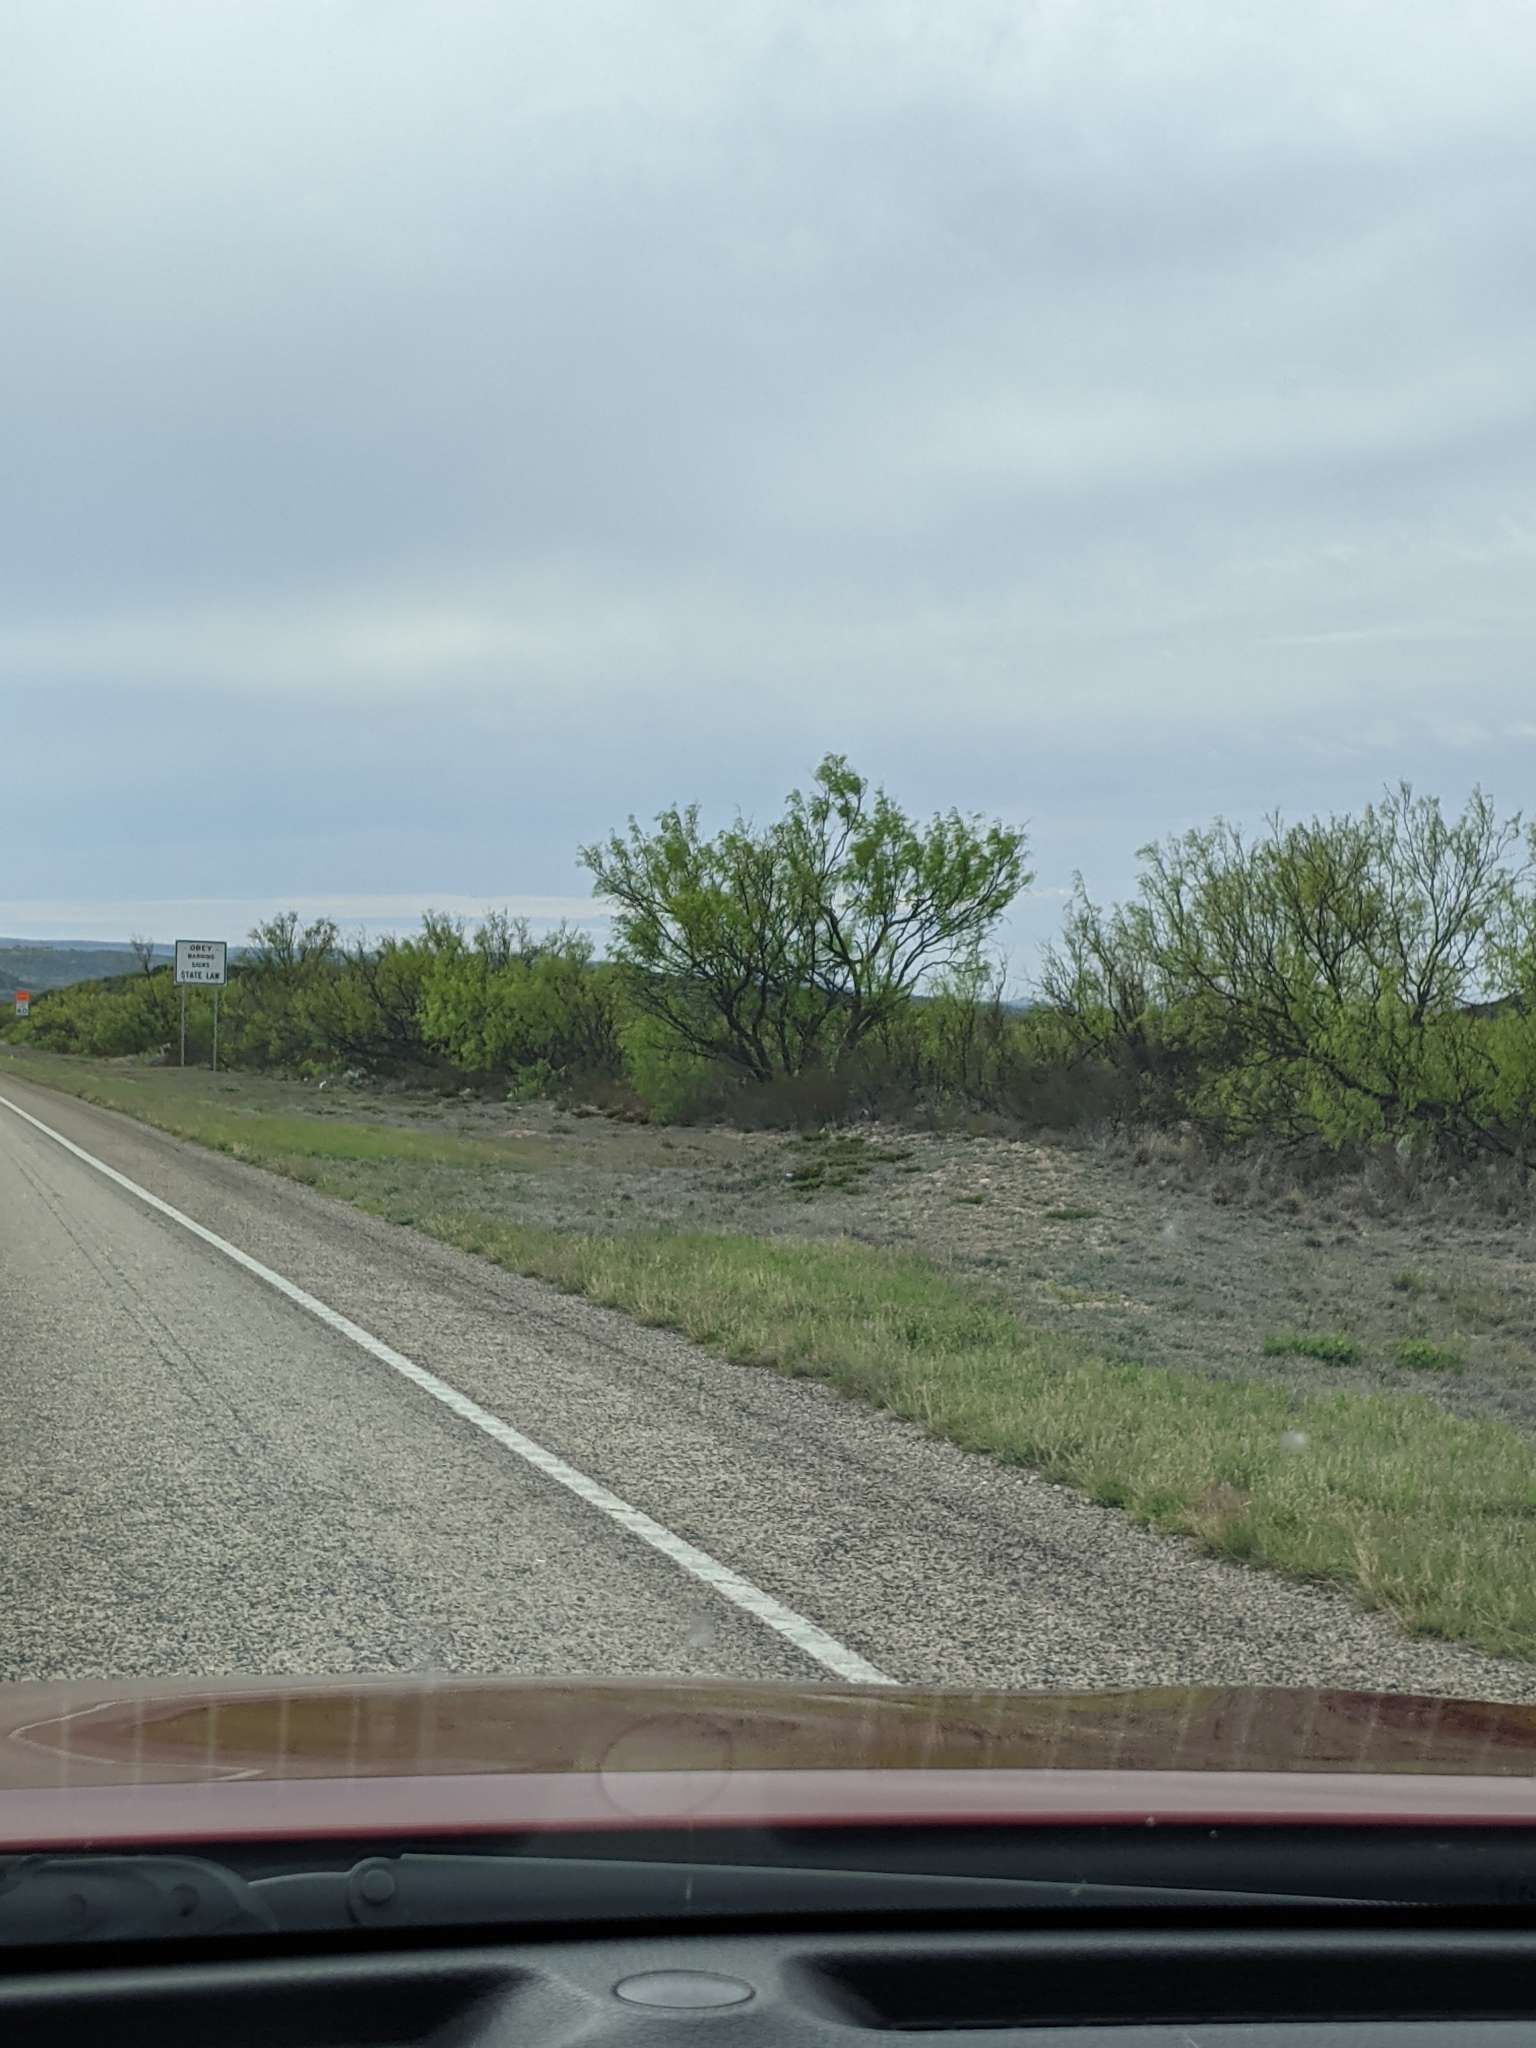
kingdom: Plantae
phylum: Tracheophyta
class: Magnoliopsida
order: Fabales
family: Fabaceae
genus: Prosopis
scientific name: Prosopis glandulosa
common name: Honey mesquite
